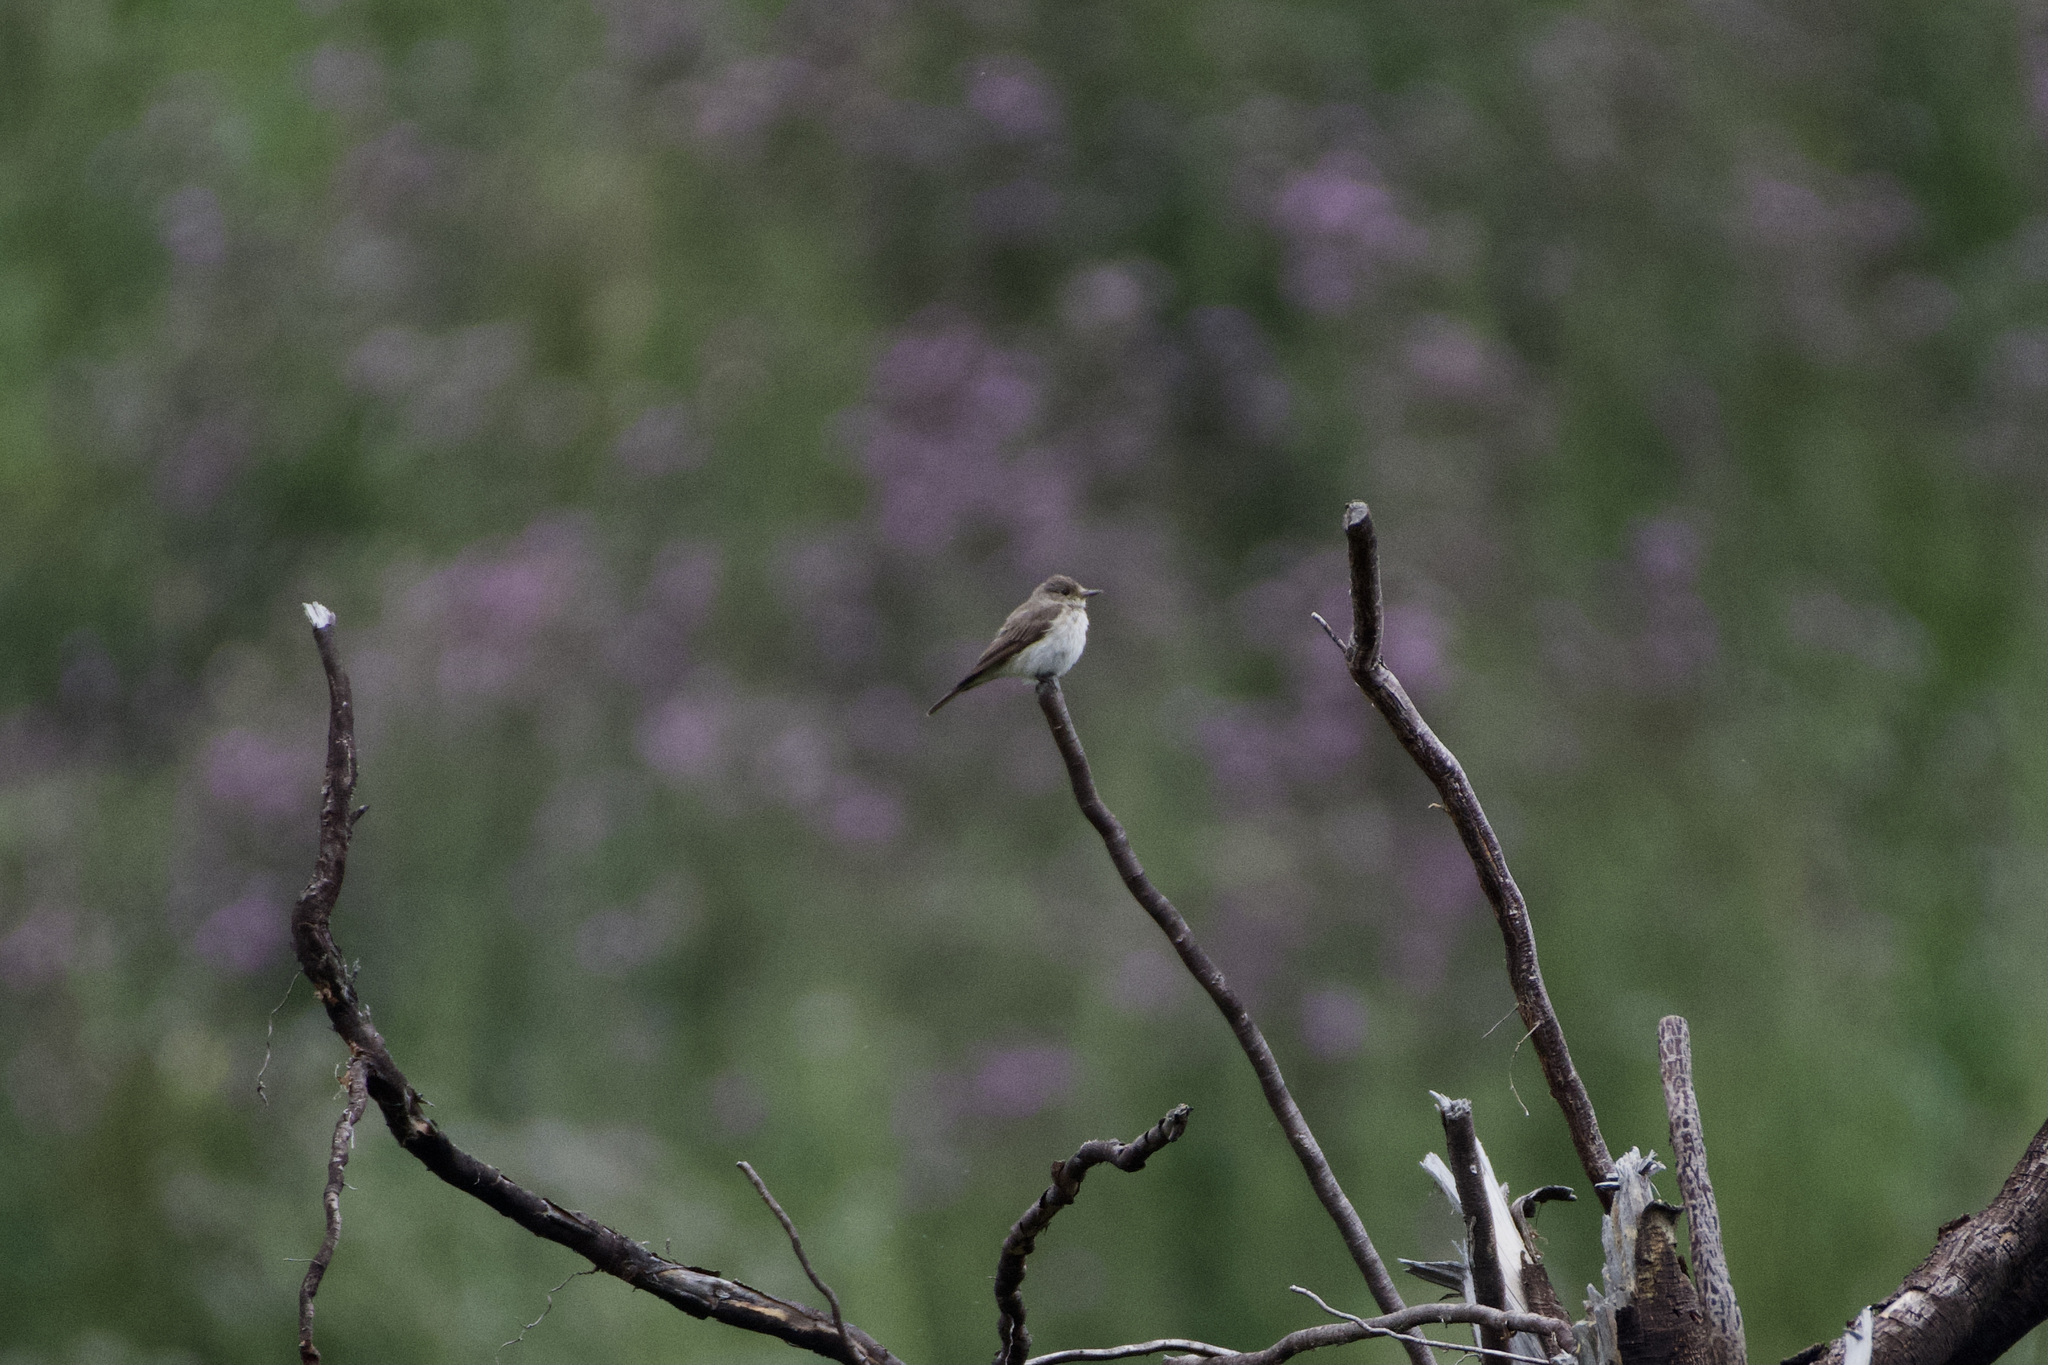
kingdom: Animalia
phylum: Chordata
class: Aves
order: Passeriformes
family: Muscicapidae
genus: Muscicapa
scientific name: Muscicapa striata
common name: Spotted flycatcher
